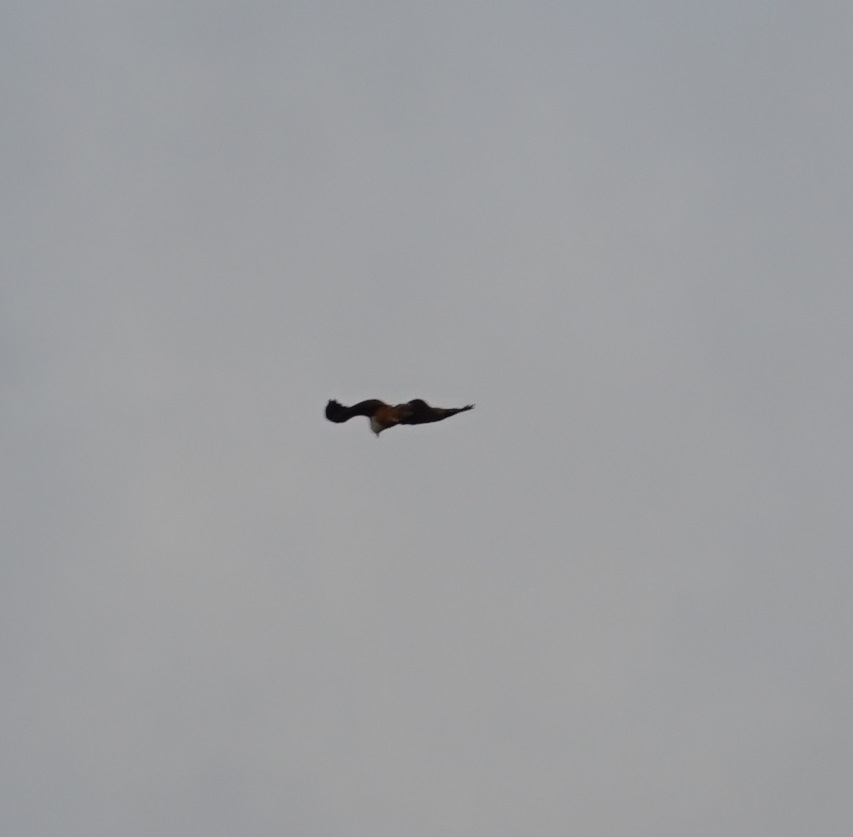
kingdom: Animalia
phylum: Chordata
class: Aves
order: Accipitriformes
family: Accipitridae
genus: Haliastur
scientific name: Haliastur indus
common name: Brahminy kite
